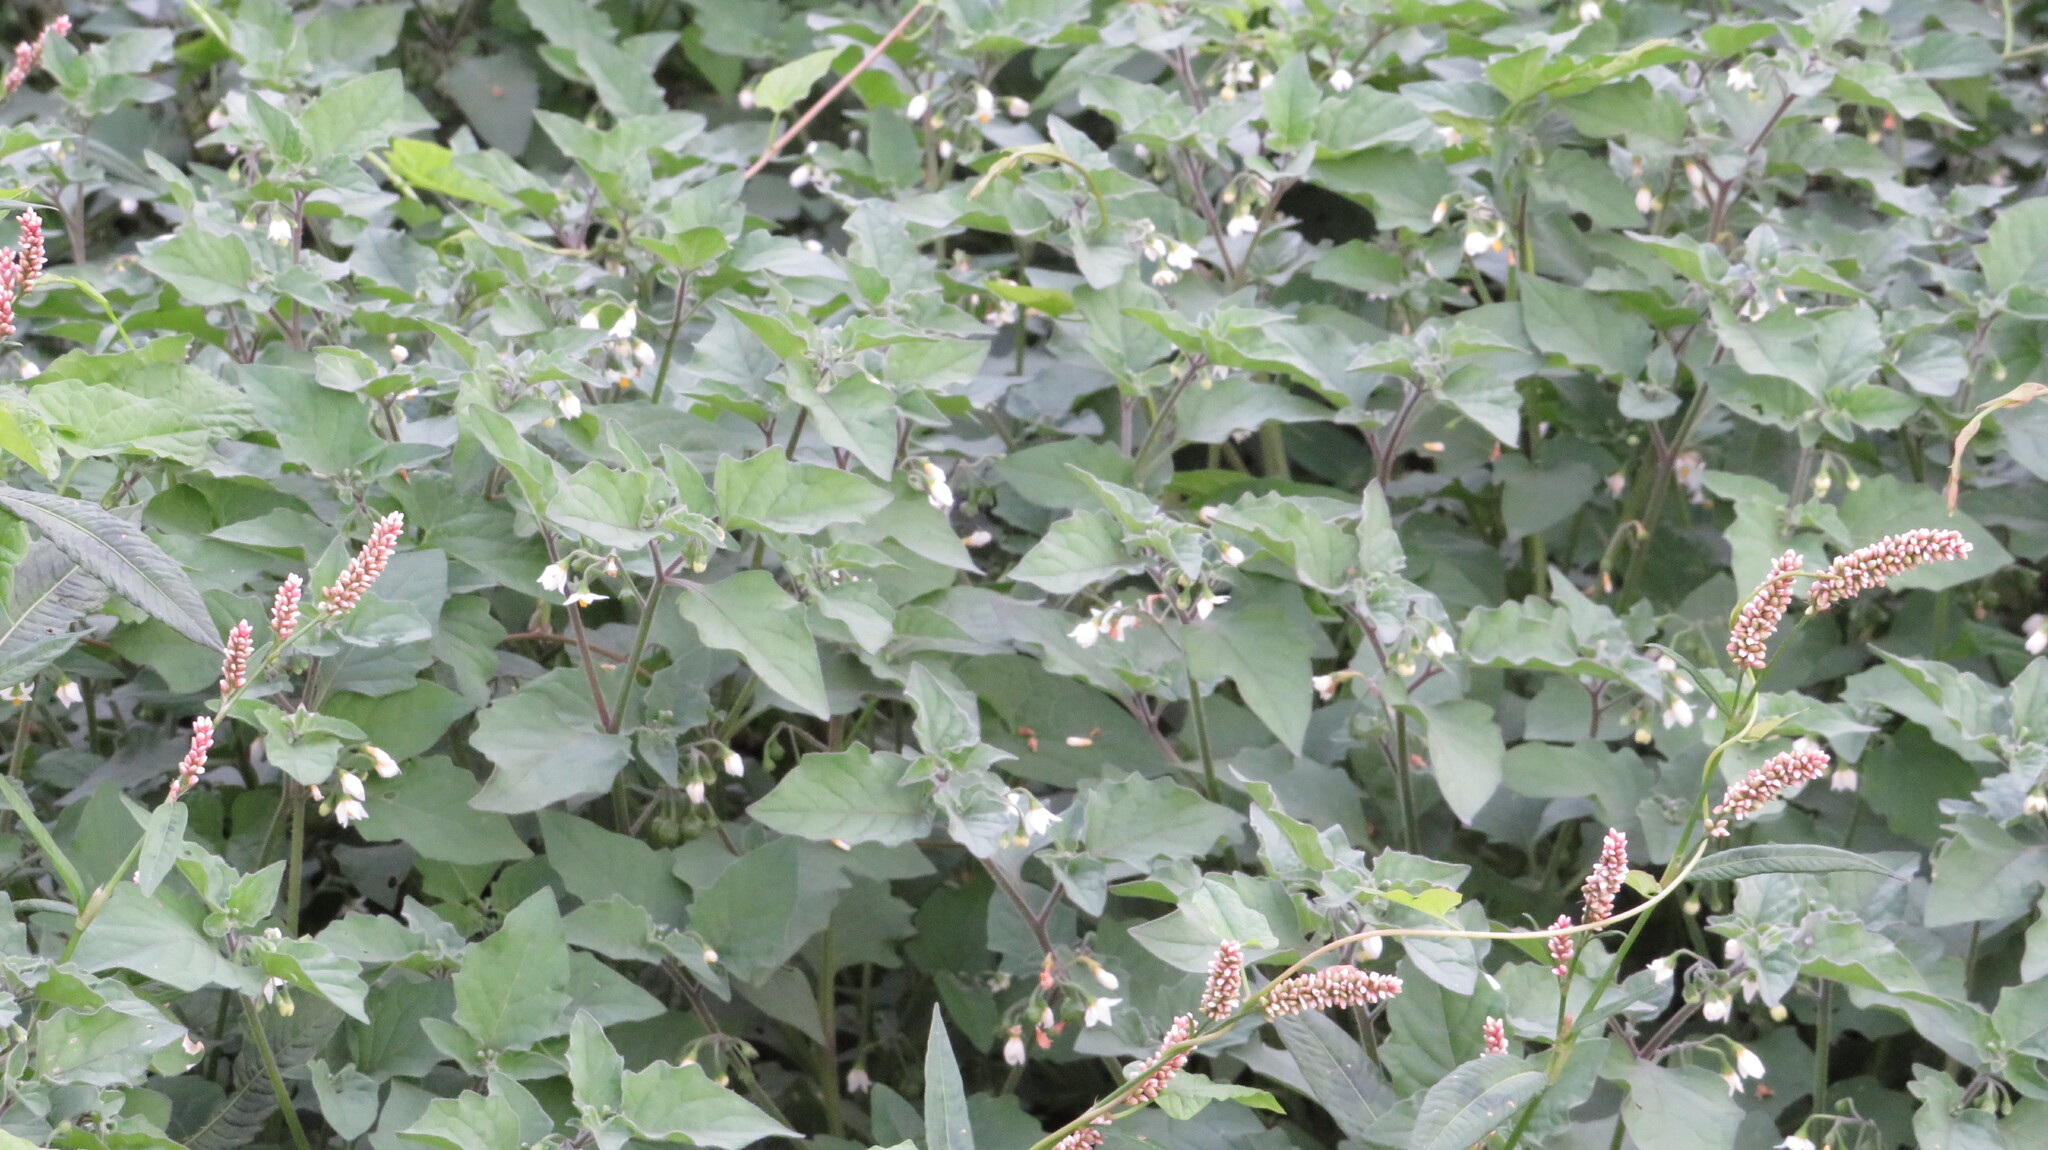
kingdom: Plantae
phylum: Tracheophyta
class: Magnoliopsida
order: Solanales
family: Solanaceae
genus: Solanum
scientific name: Solanum nigrum
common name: Black nightshade
